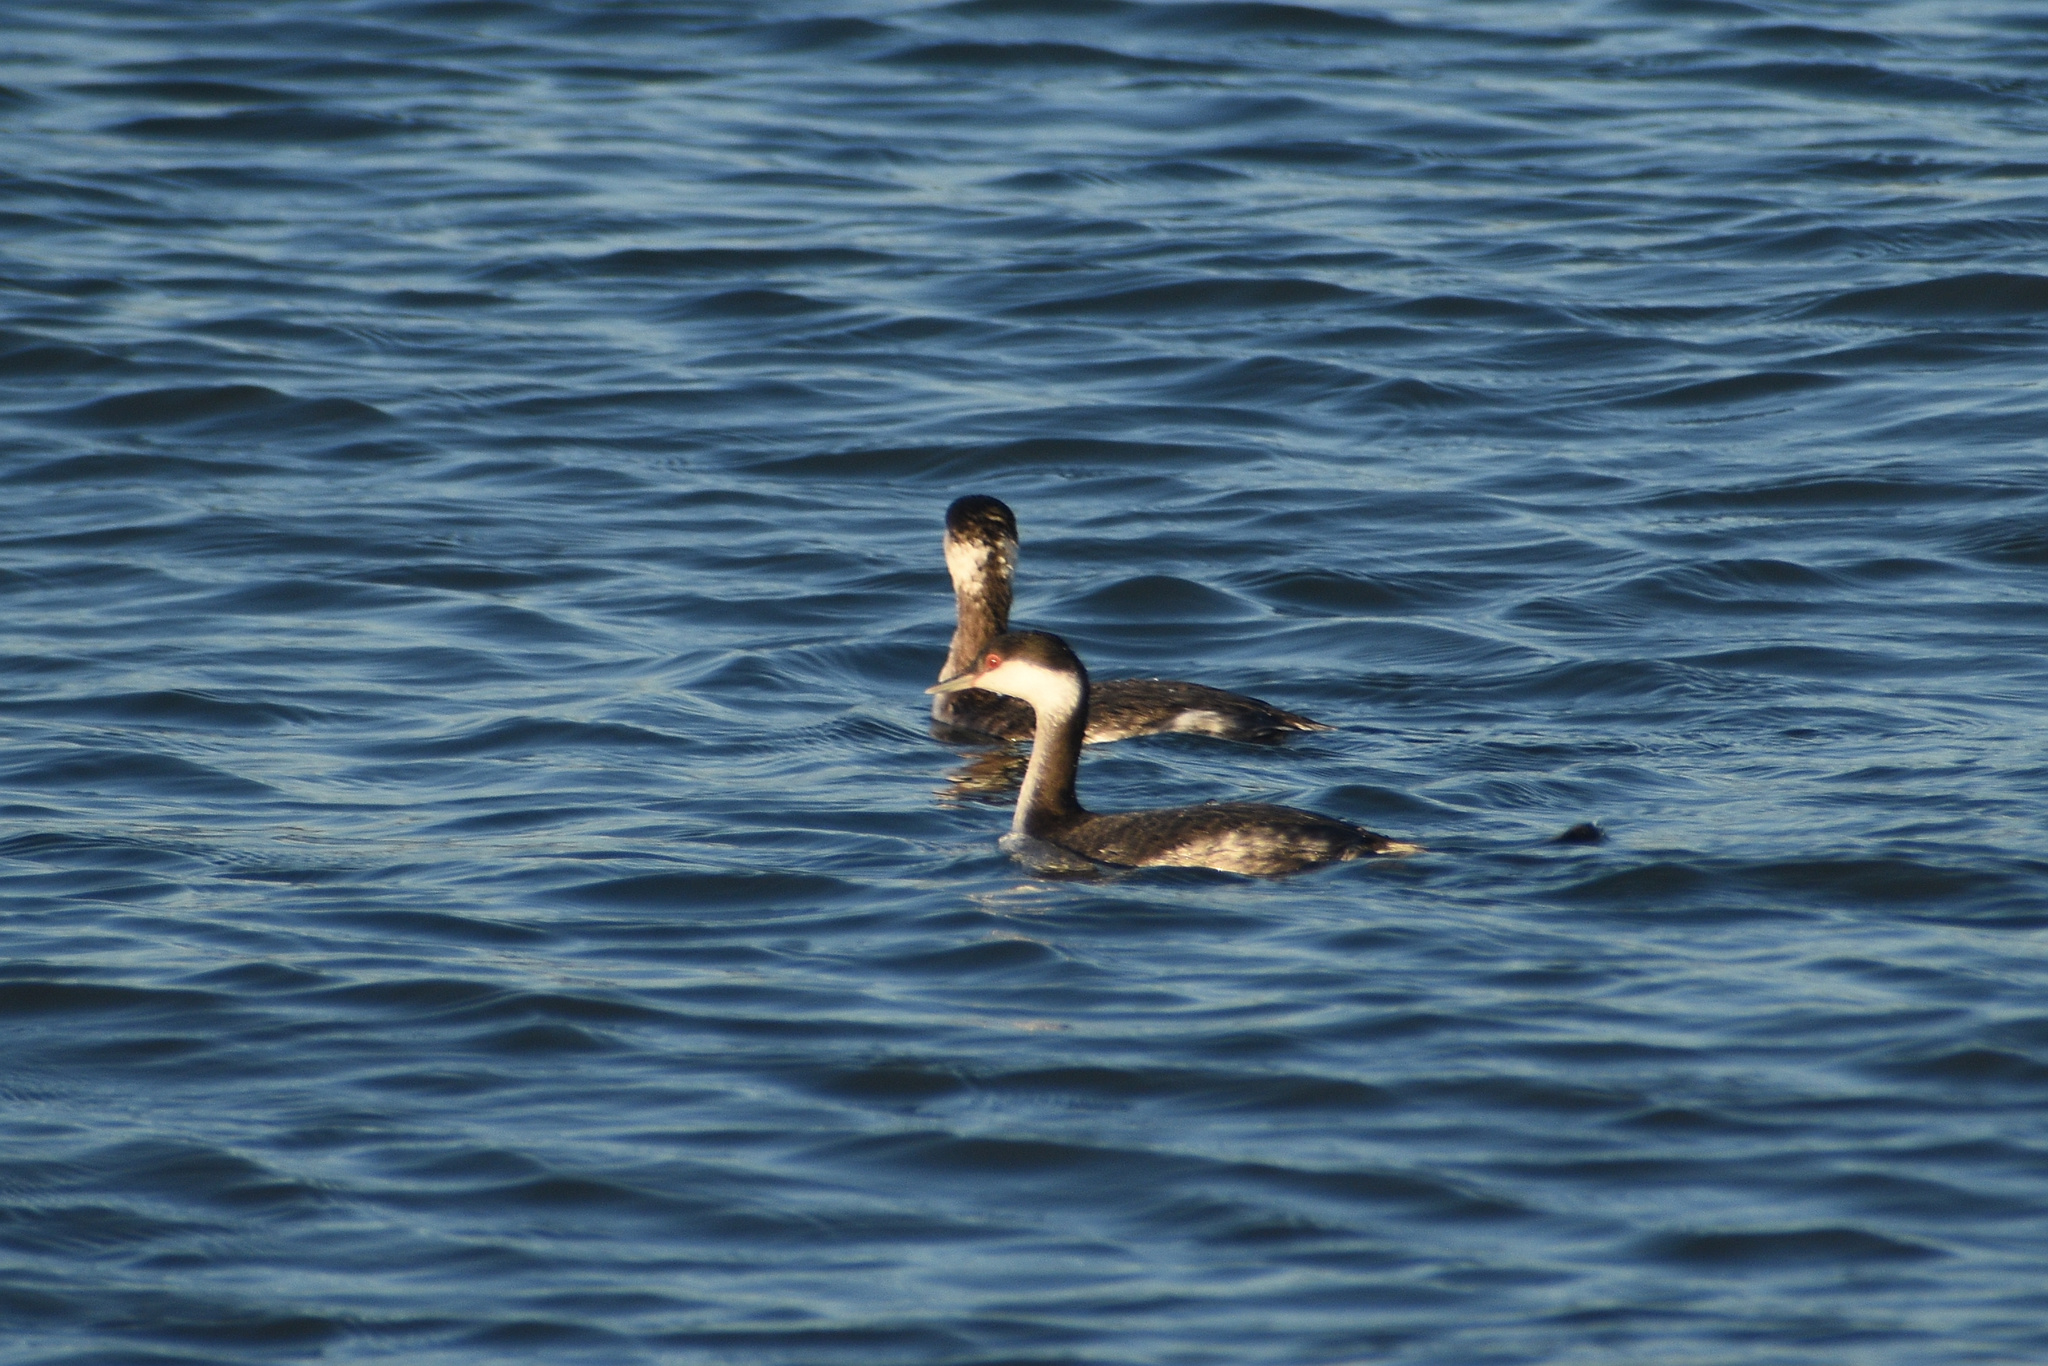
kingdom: Animalia
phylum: Chordata
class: Aves
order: Podicipediformes
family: Podicipedidae
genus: Podiceps
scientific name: Podiceps auritus
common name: Horned grebe
